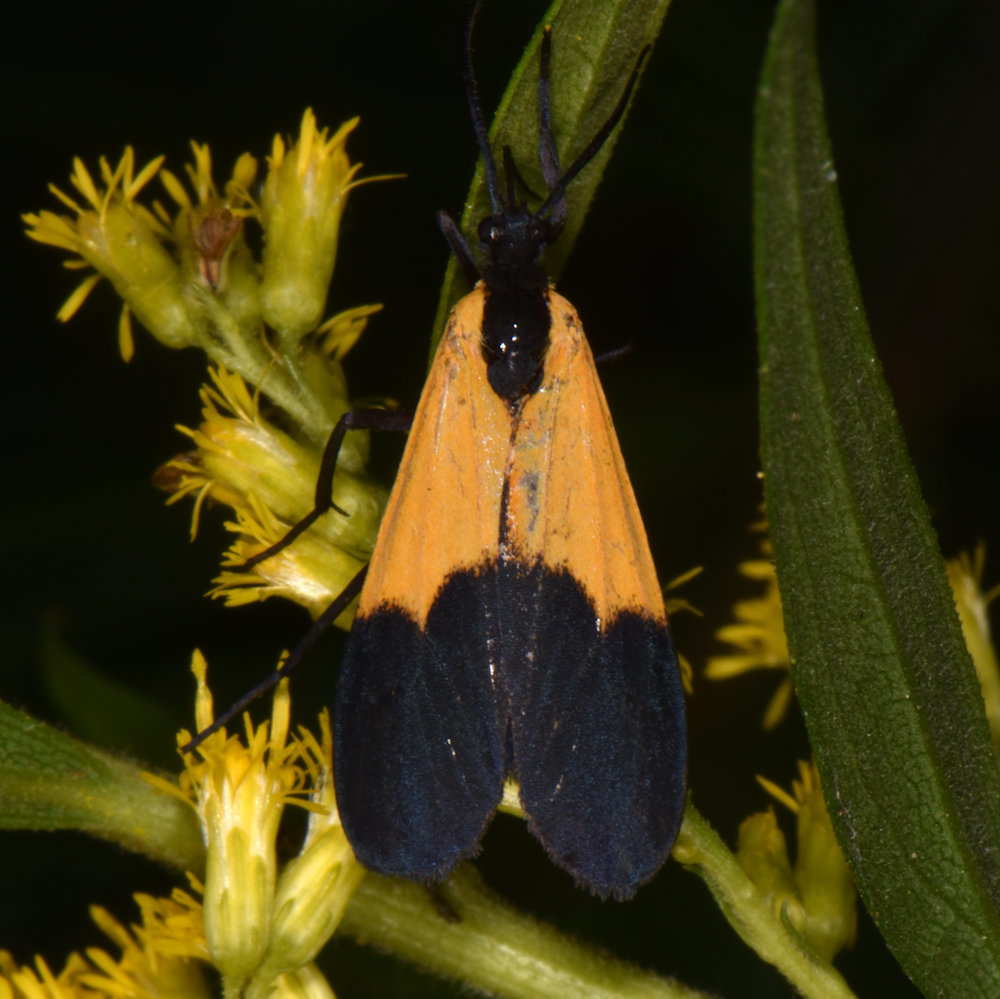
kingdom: Animalia
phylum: Arthropoda
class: Insecta
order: Lepidoptera
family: Erebidae
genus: Lycomorpha
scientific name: Lycomorpha pholus
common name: Black-and-yellow lichen moth
